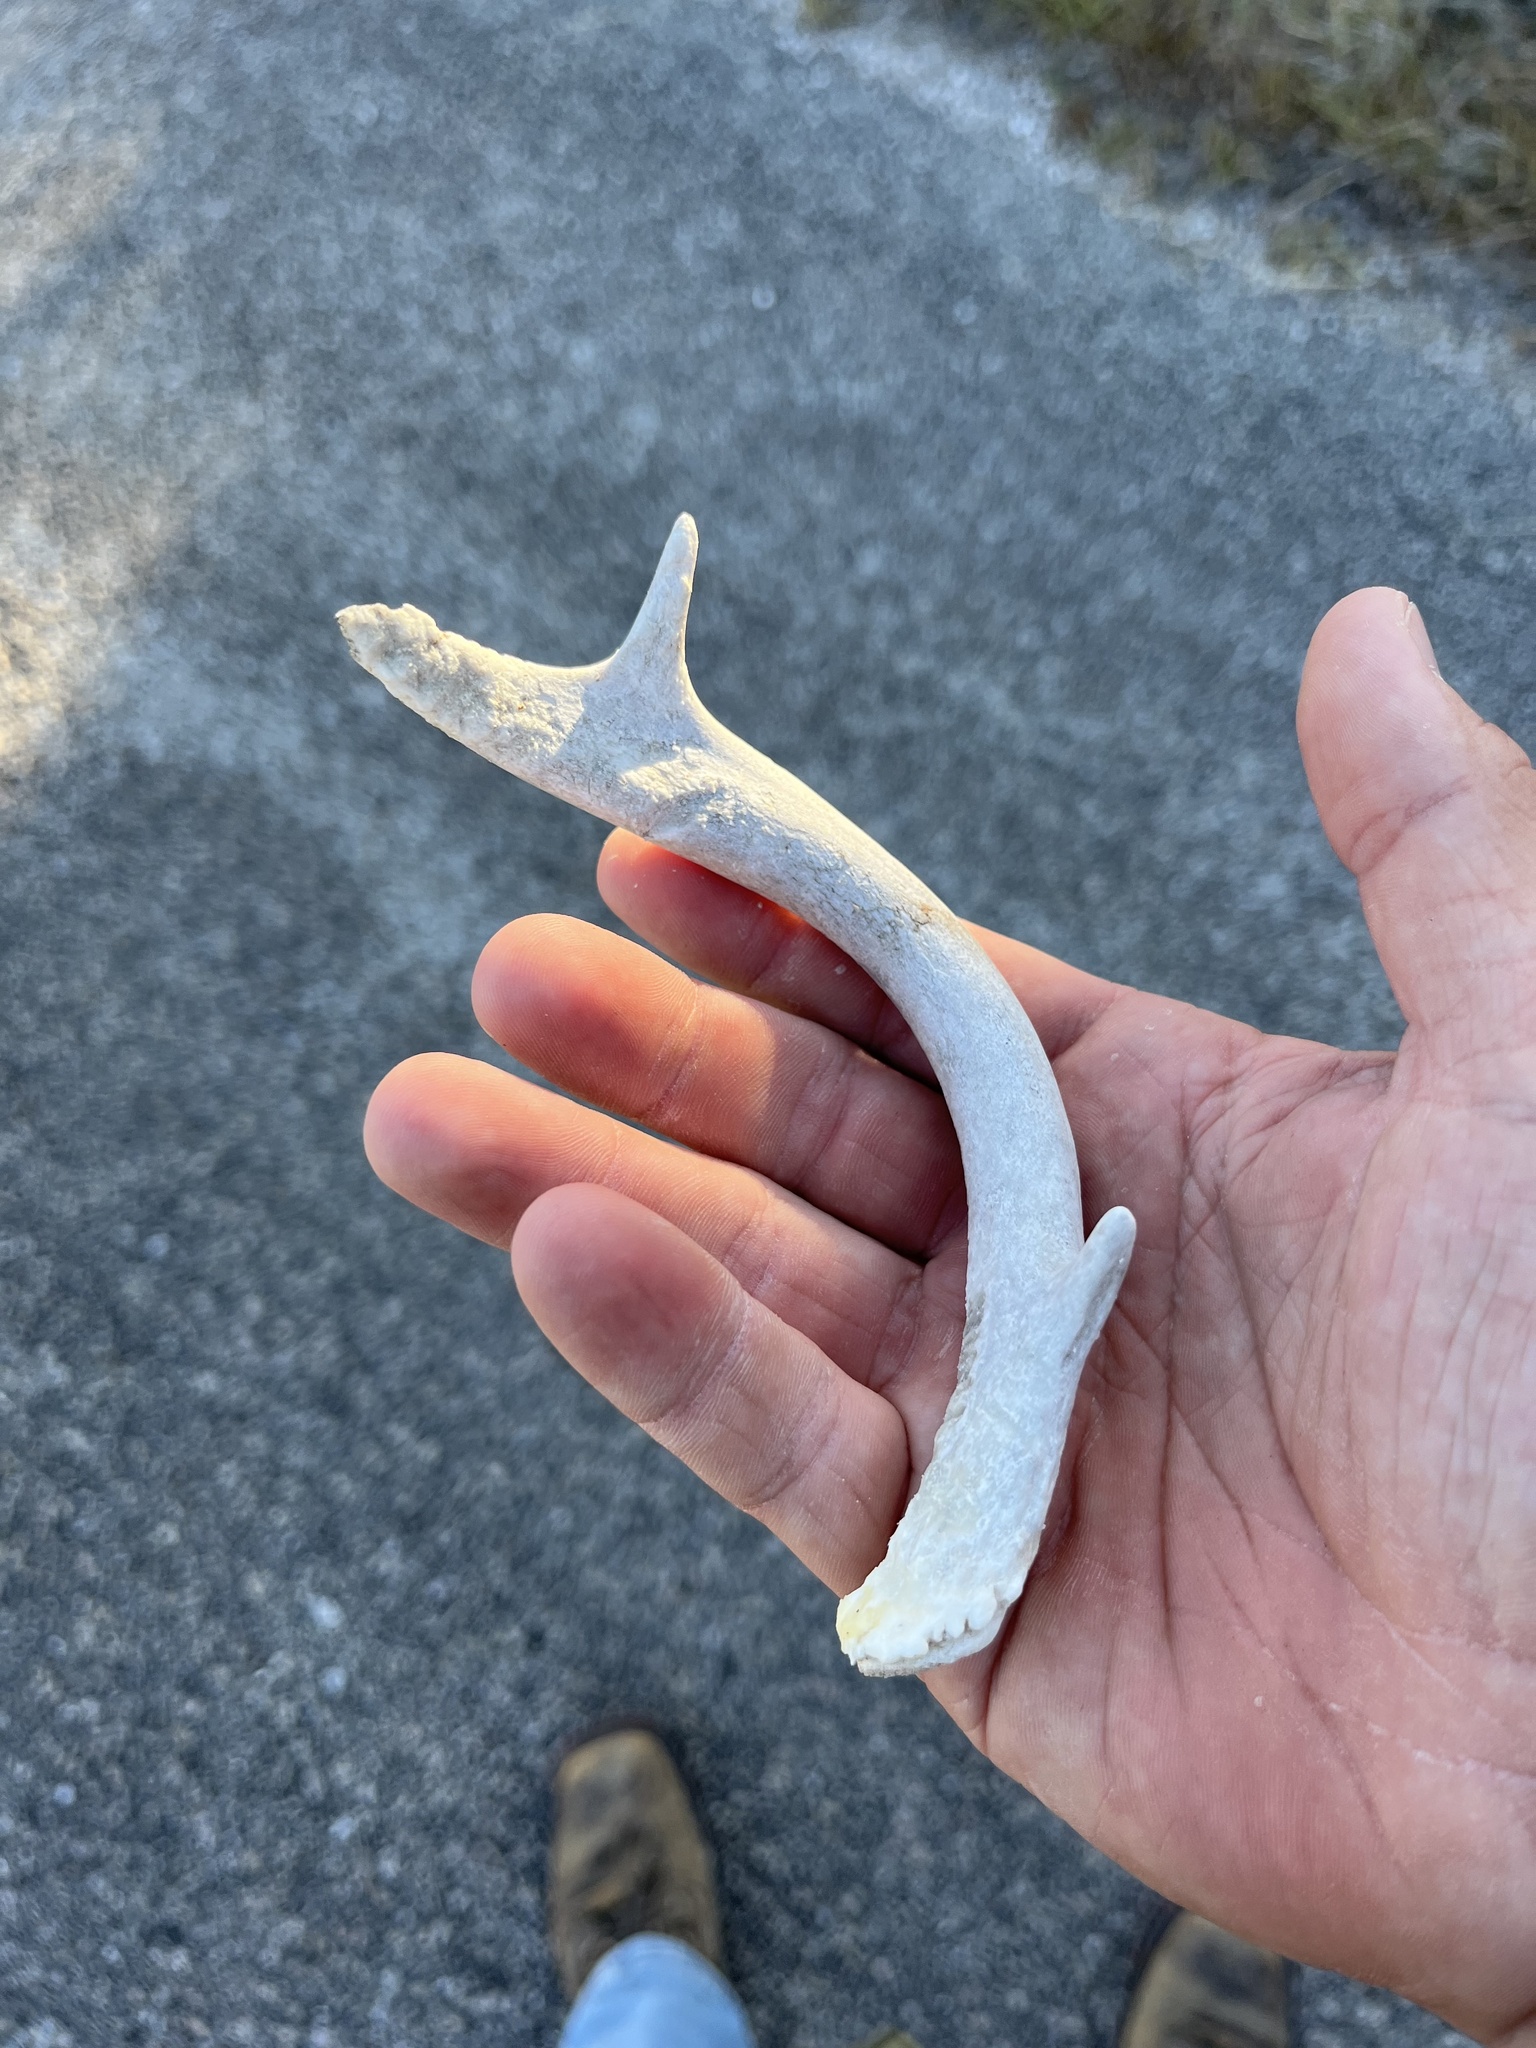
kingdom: Animalia
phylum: Chordata
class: Mammalia
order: Artiodactyla
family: Cervidae
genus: Odocoileus
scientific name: Odocoileus virginianus
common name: White-tailed deer
